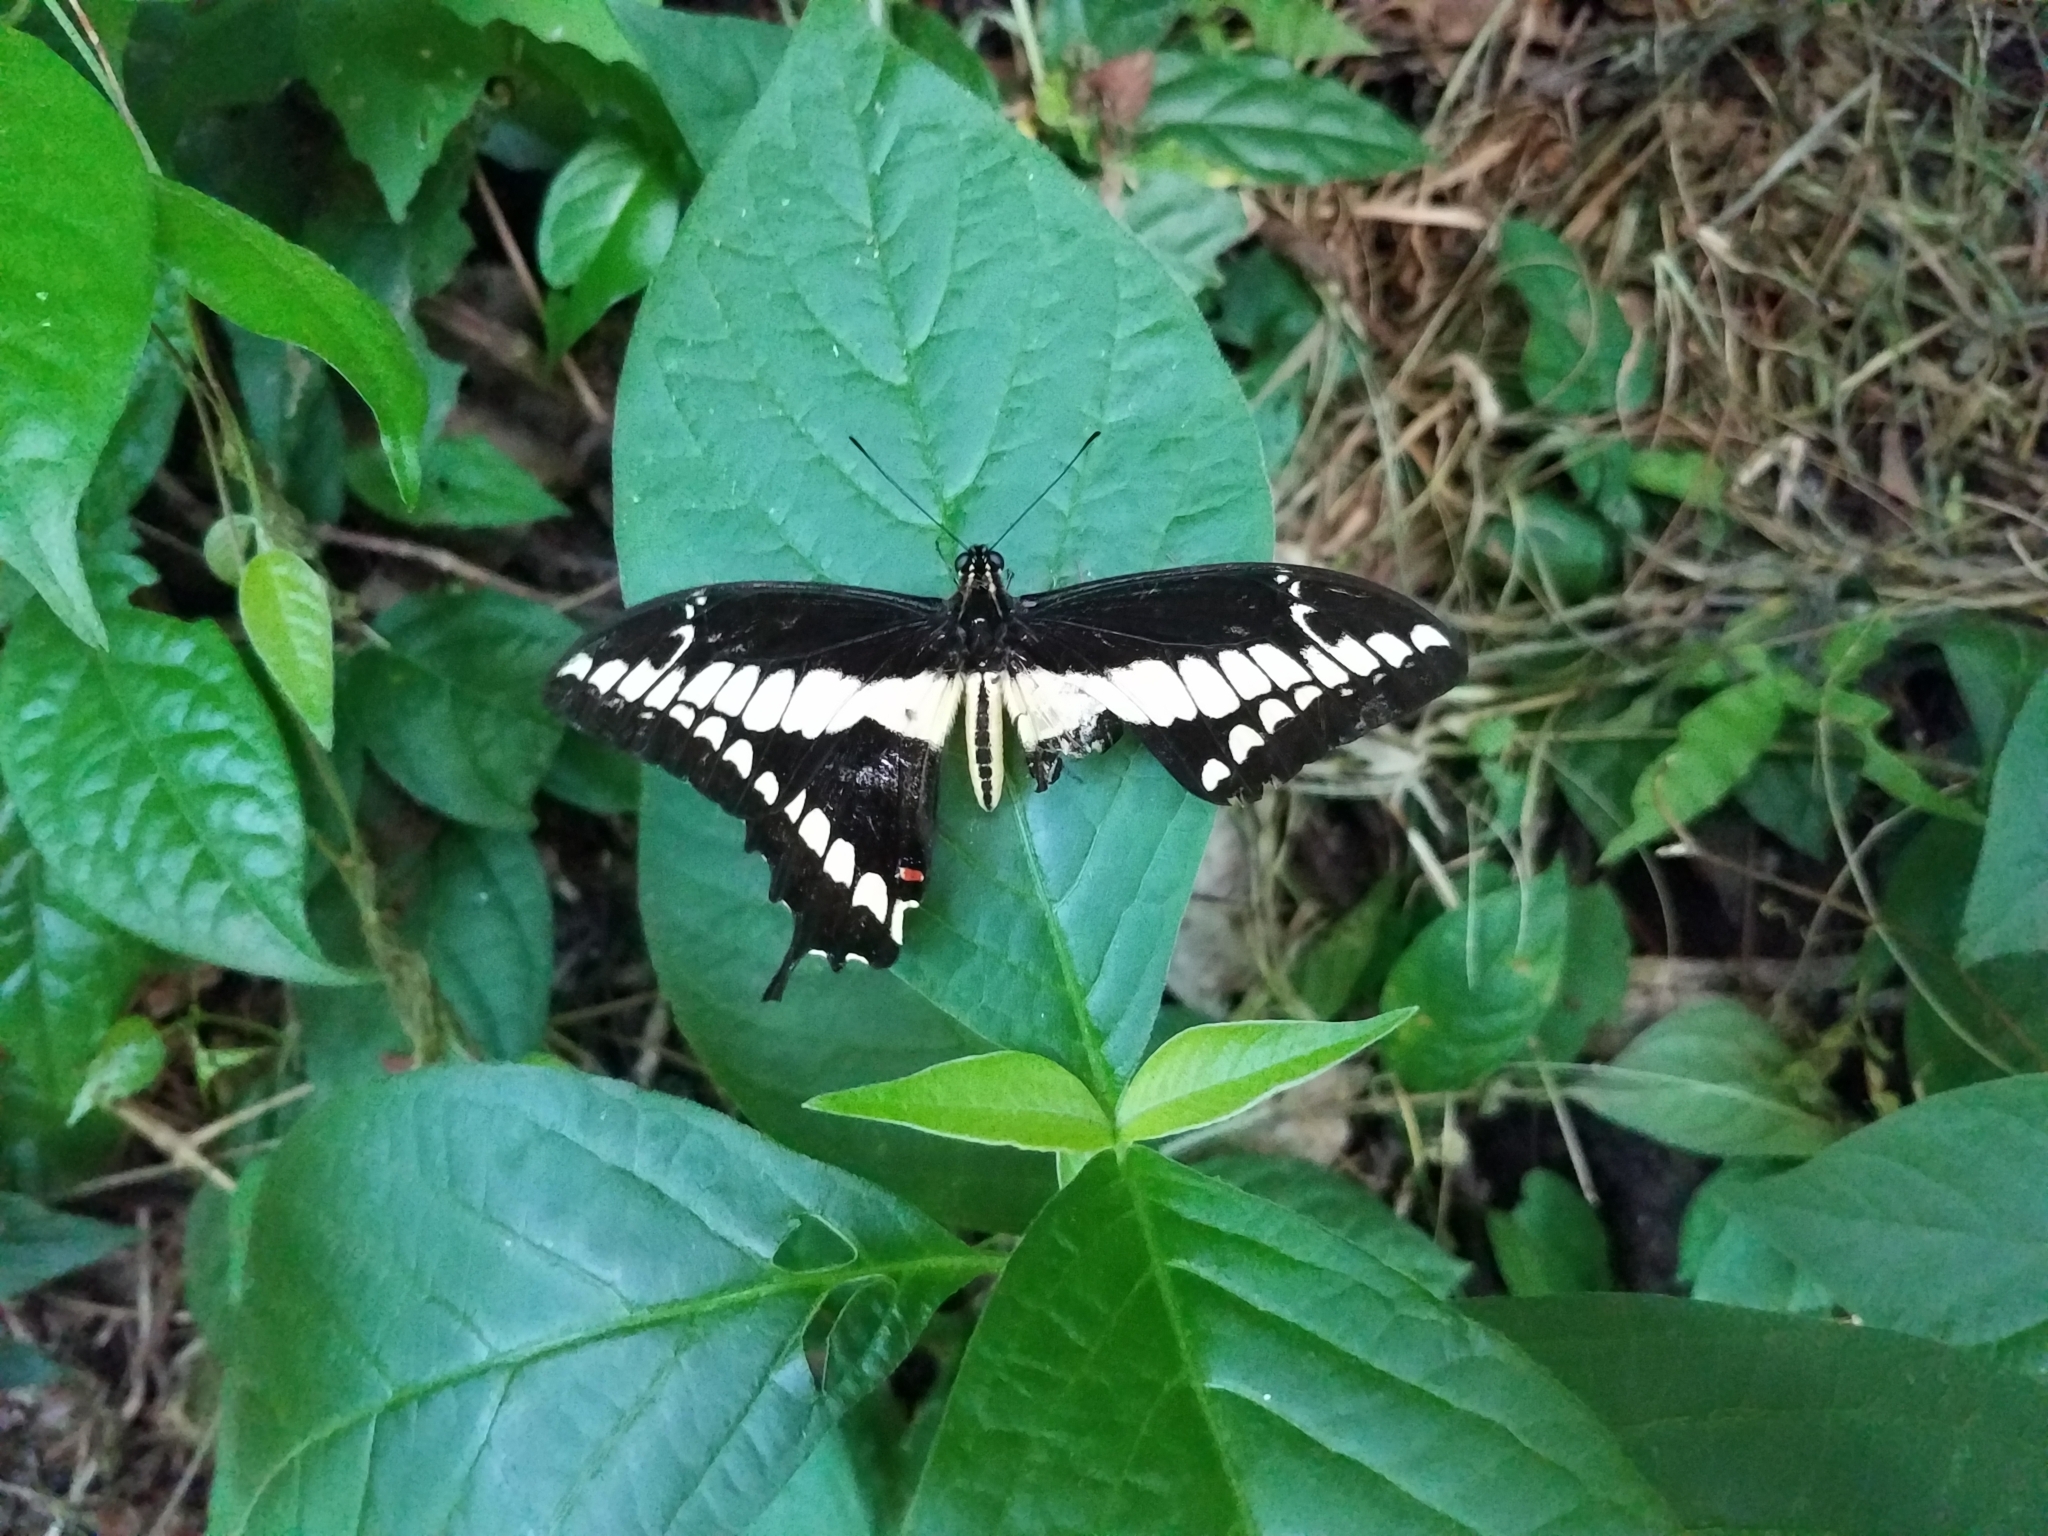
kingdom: Animalia
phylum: Arthropoda
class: Insecta
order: Lepidoptera
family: Papilionidae
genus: Papilio
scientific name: Papilio thoas
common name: King swallowtail
